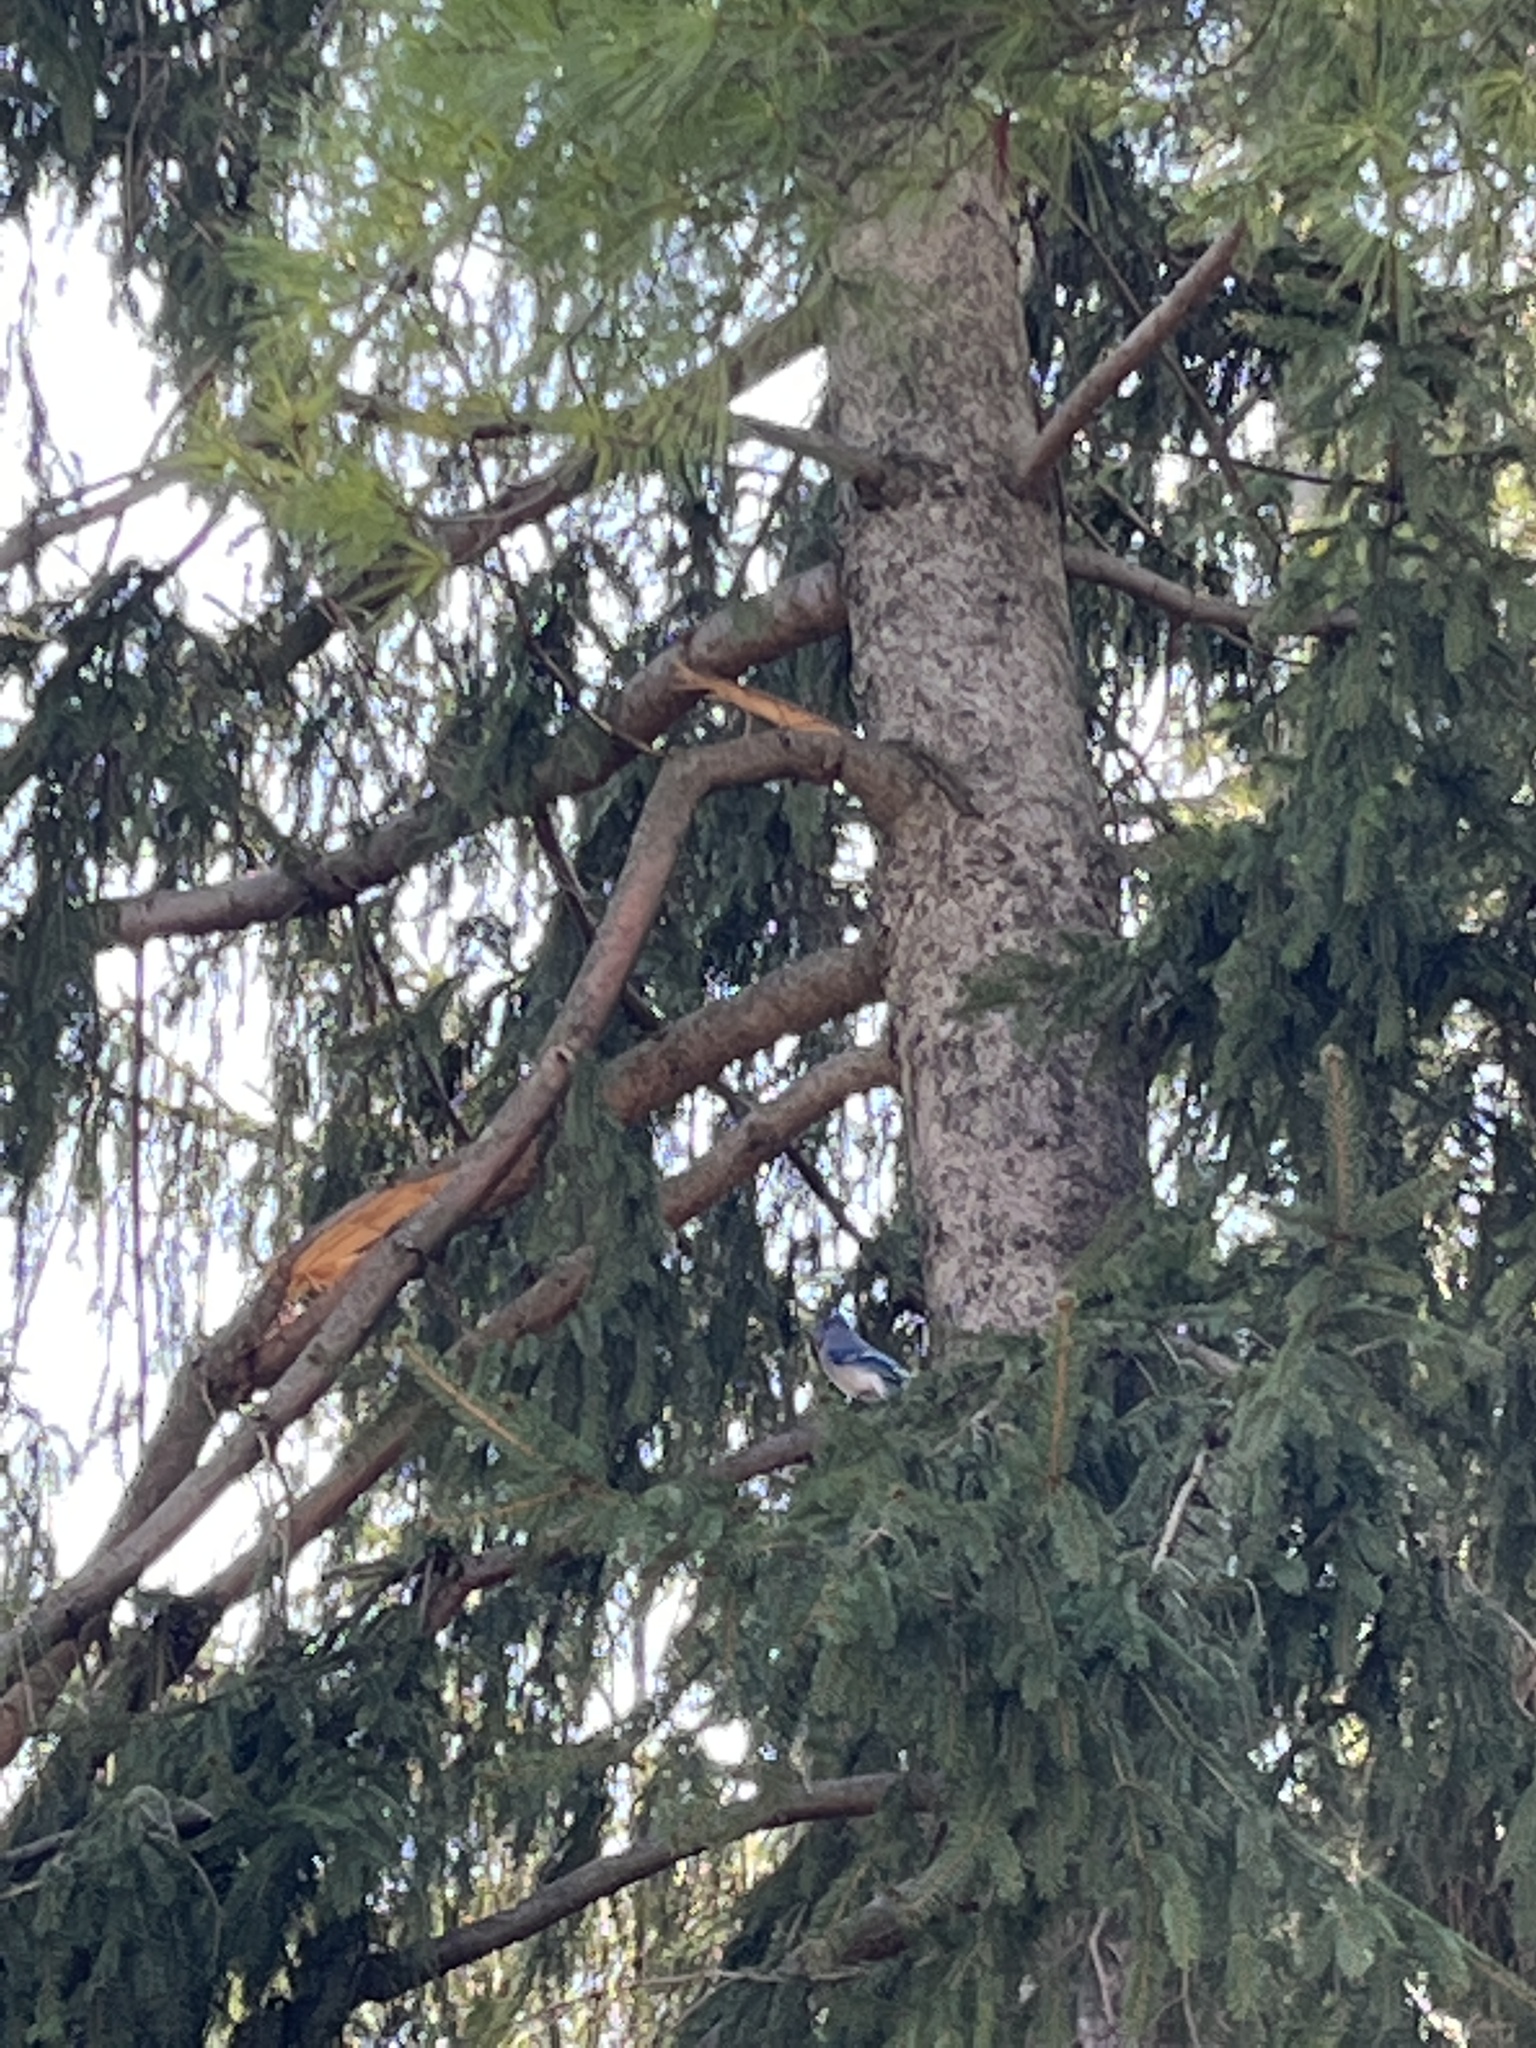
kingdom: Animalia
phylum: Chordata
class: Aves
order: Passeriformes
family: Corvidae
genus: Cyanocitta
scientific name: Cyanocitta cristata
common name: Blue jay
